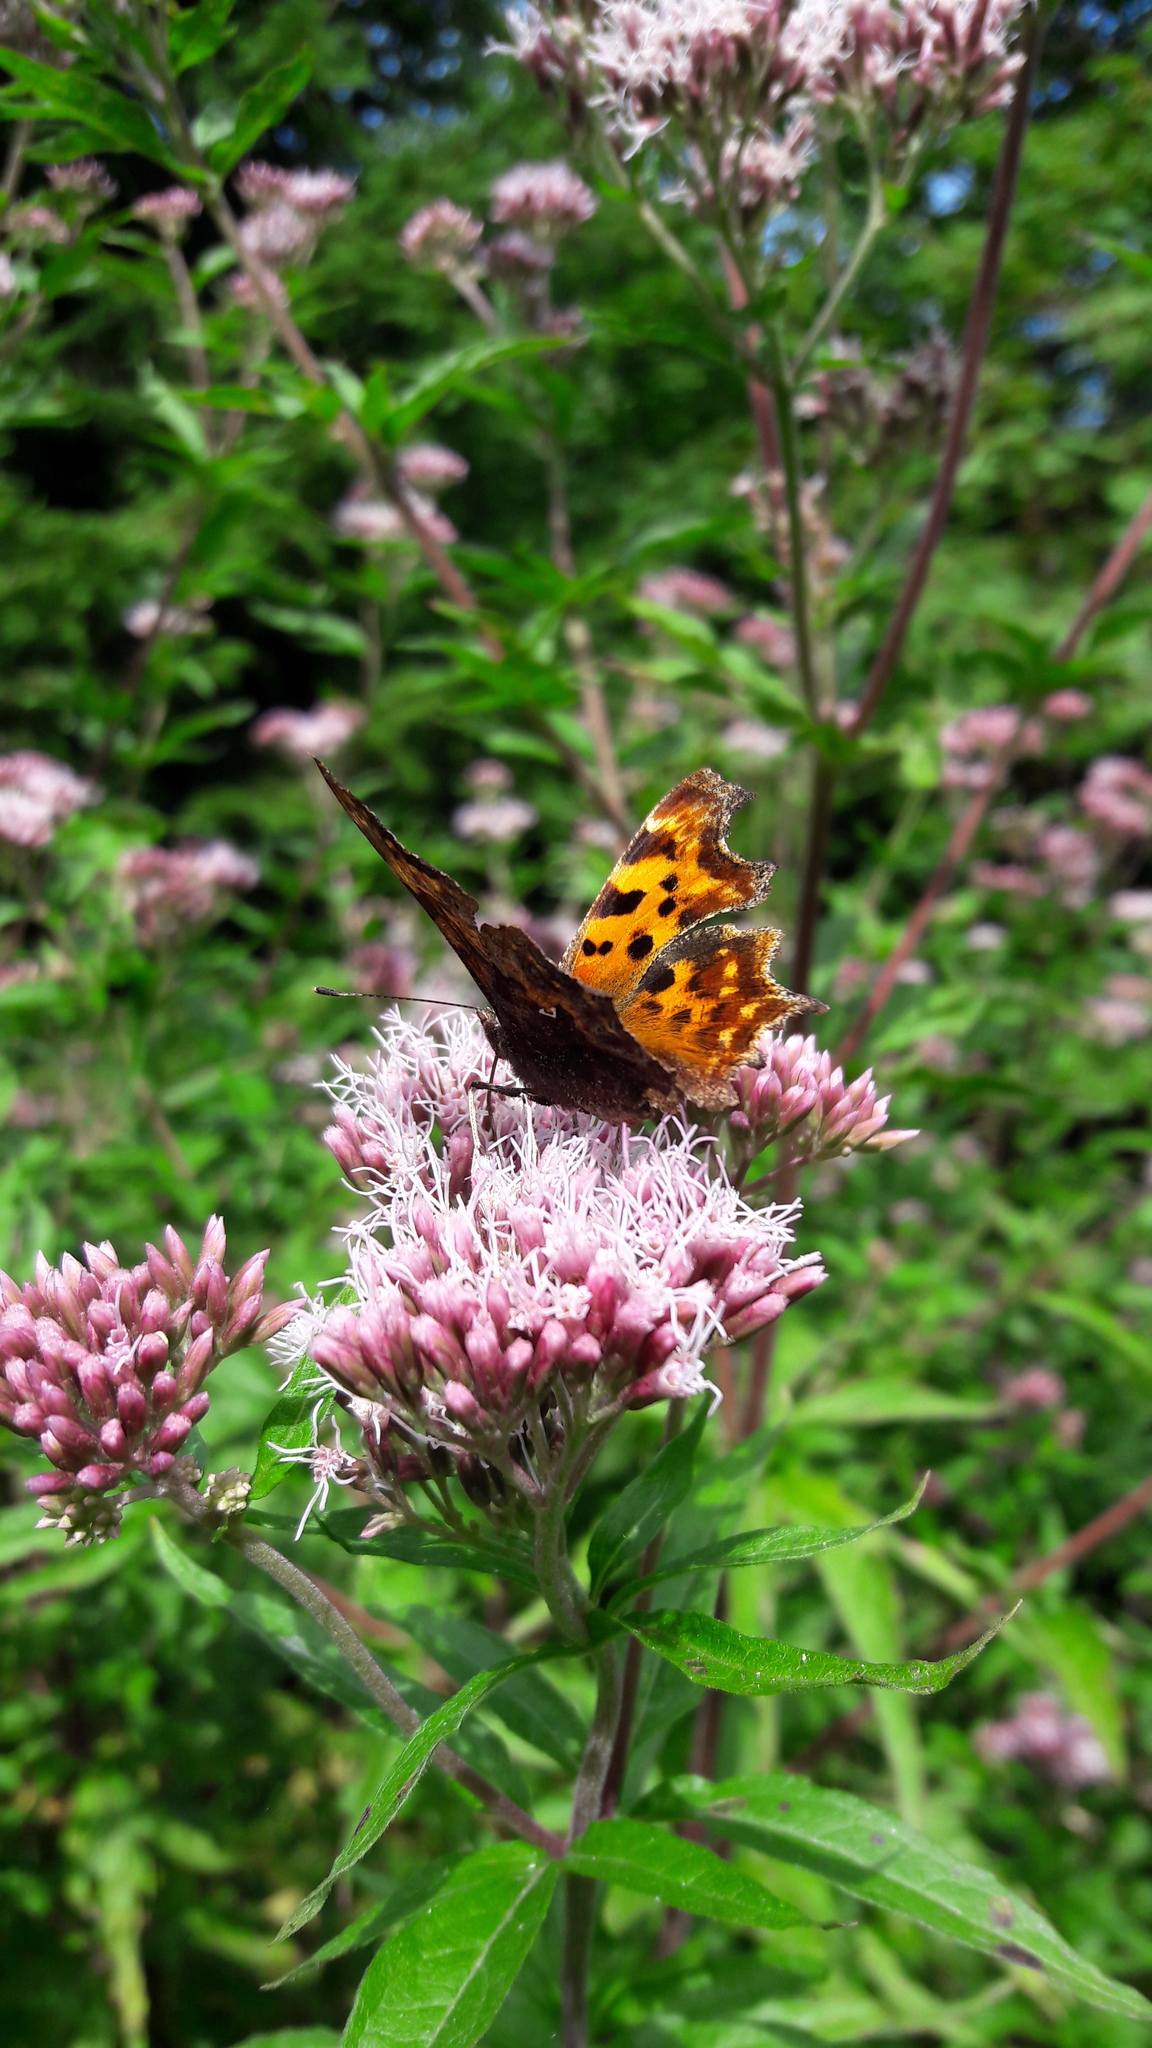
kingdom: Animalia
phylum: Arthropoda
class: Insecta
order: Lepidoptera
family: Nymphalidae
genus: Polygonia
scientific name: Polygonia c-album
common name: Comma
